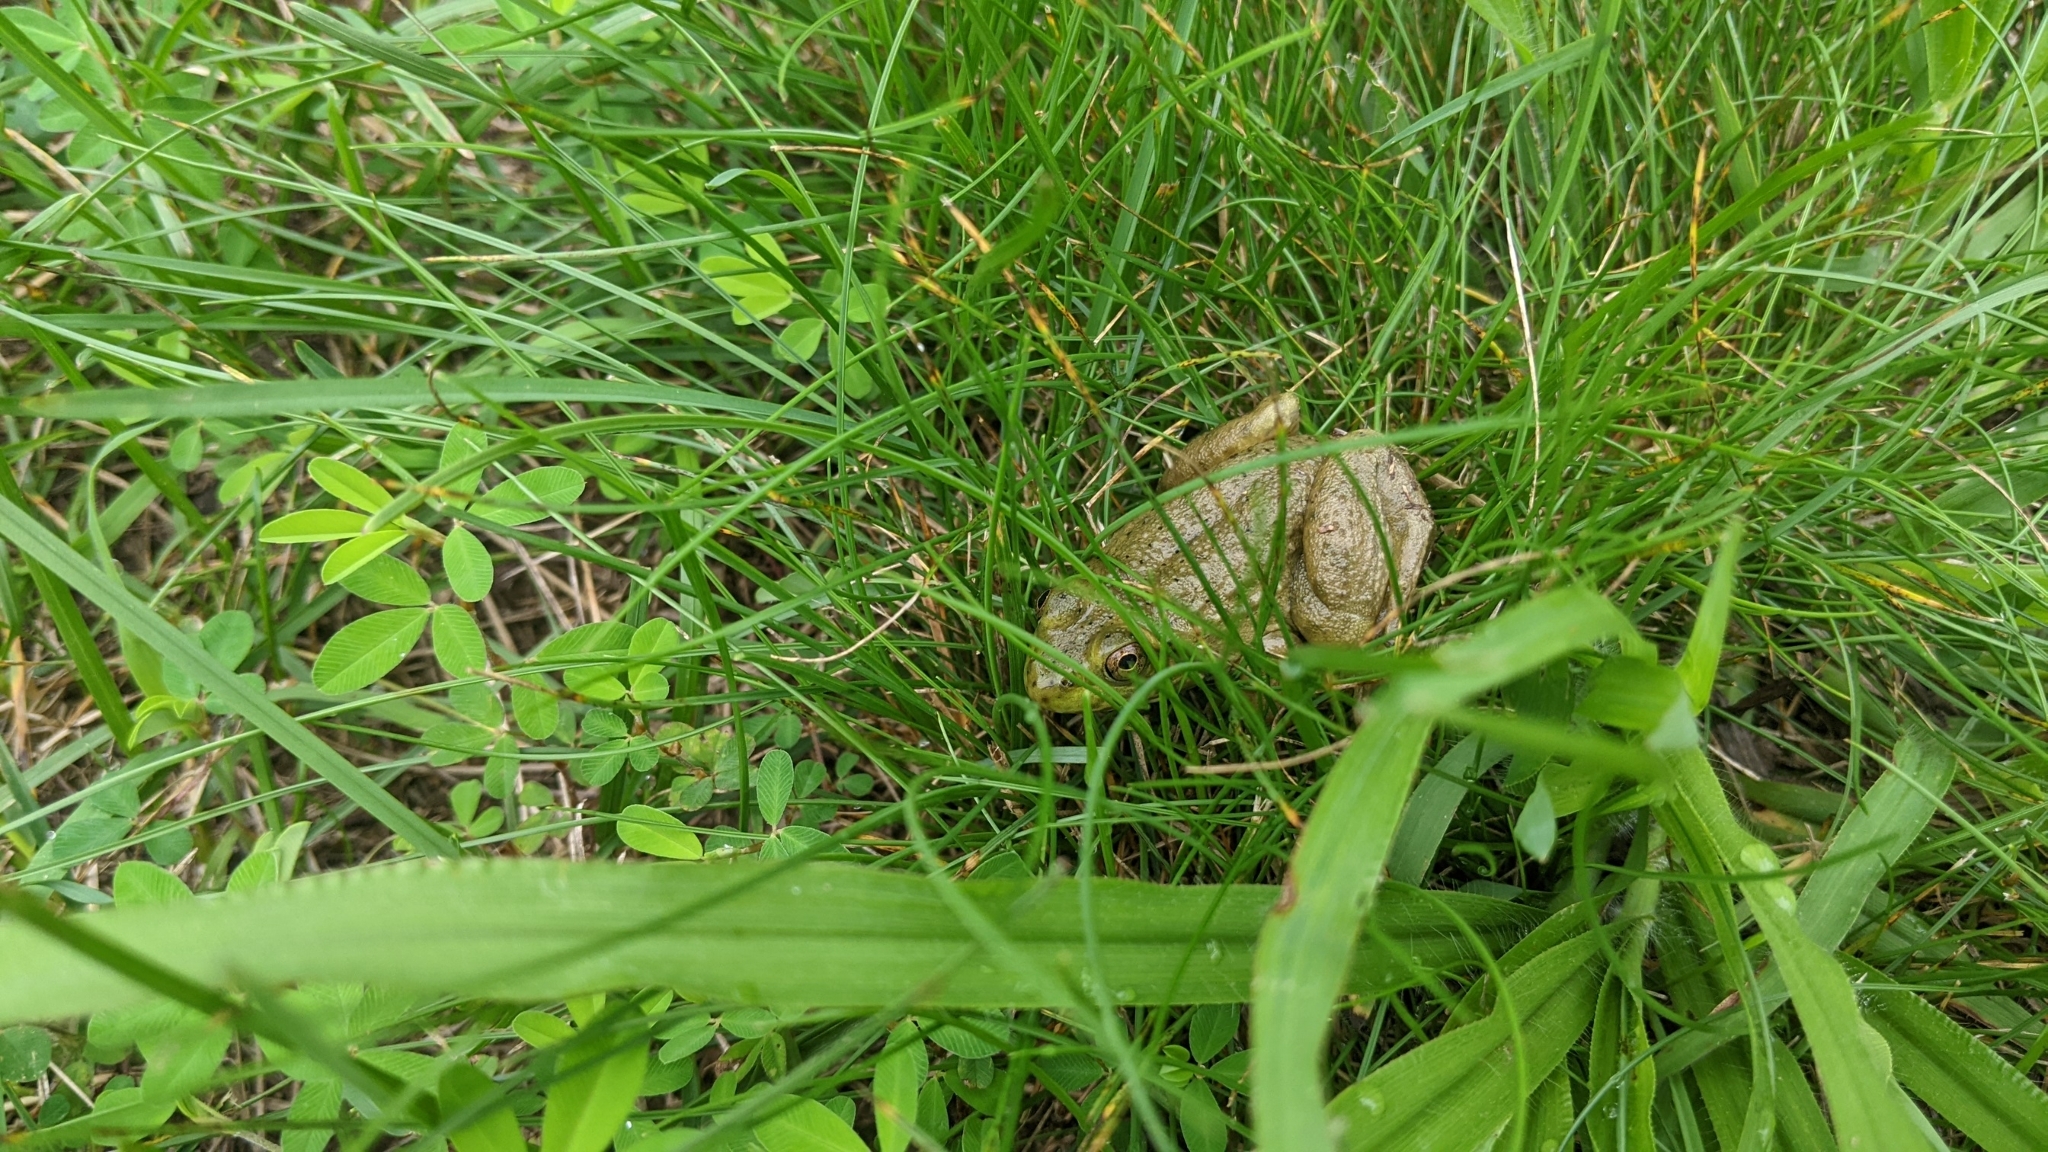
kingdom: Animalia
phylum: Chordata
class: Amphibia
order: Anura
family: Ranidae
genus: Lithobates
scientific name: Lithobates catesbeianus
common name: American bullfrog
